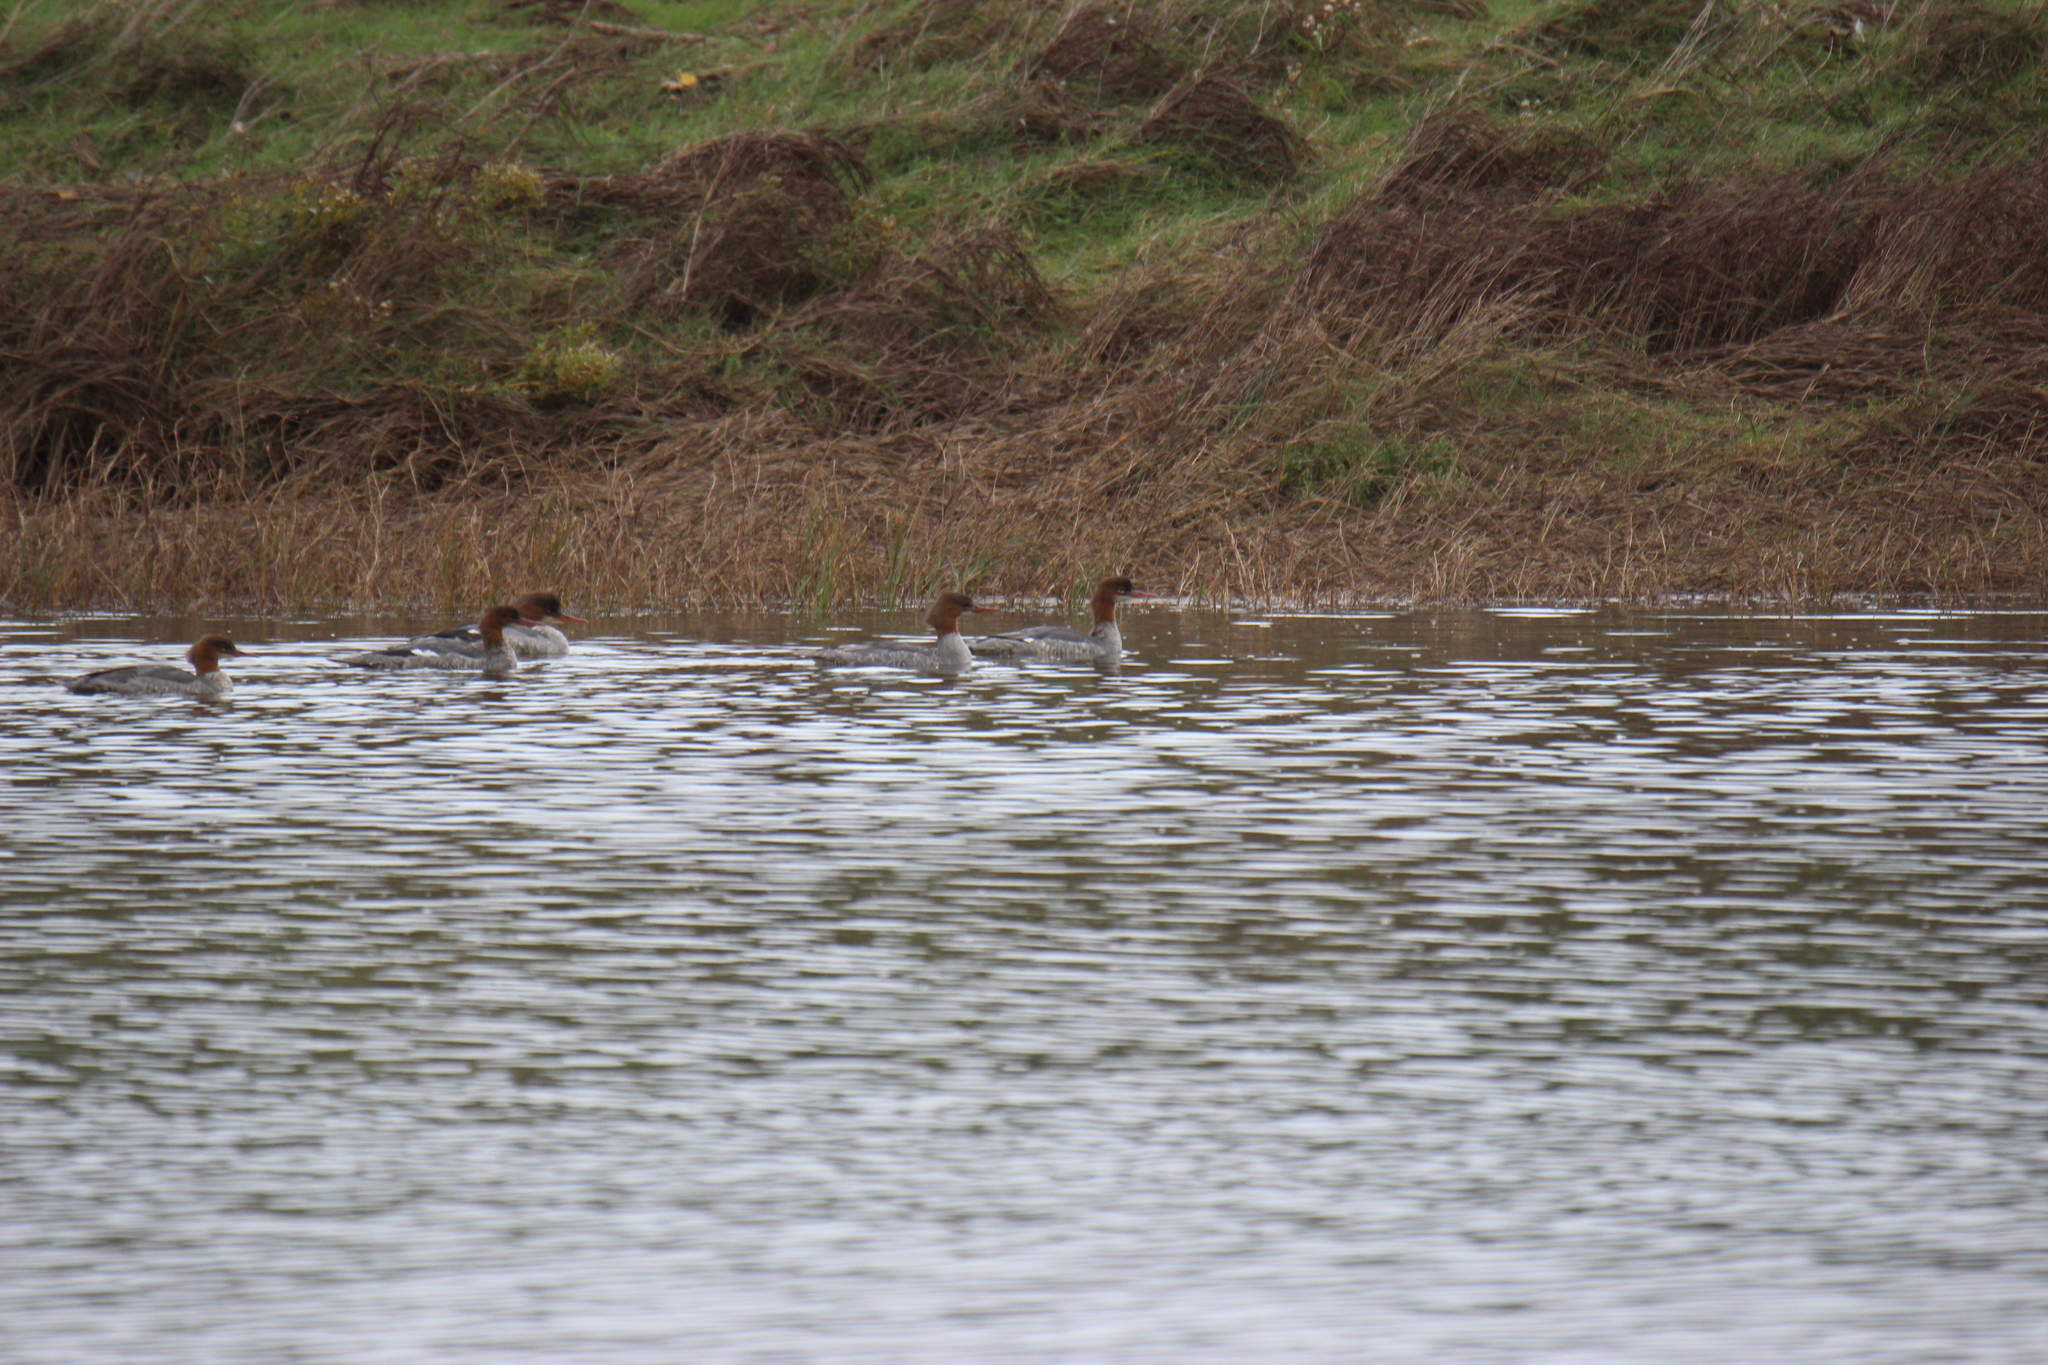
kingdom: Animalia
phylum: Chordata
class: Aves
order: Anseriformes
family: Anatidae
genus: Mergus
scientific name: Mergus merganser
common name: Common merganser
